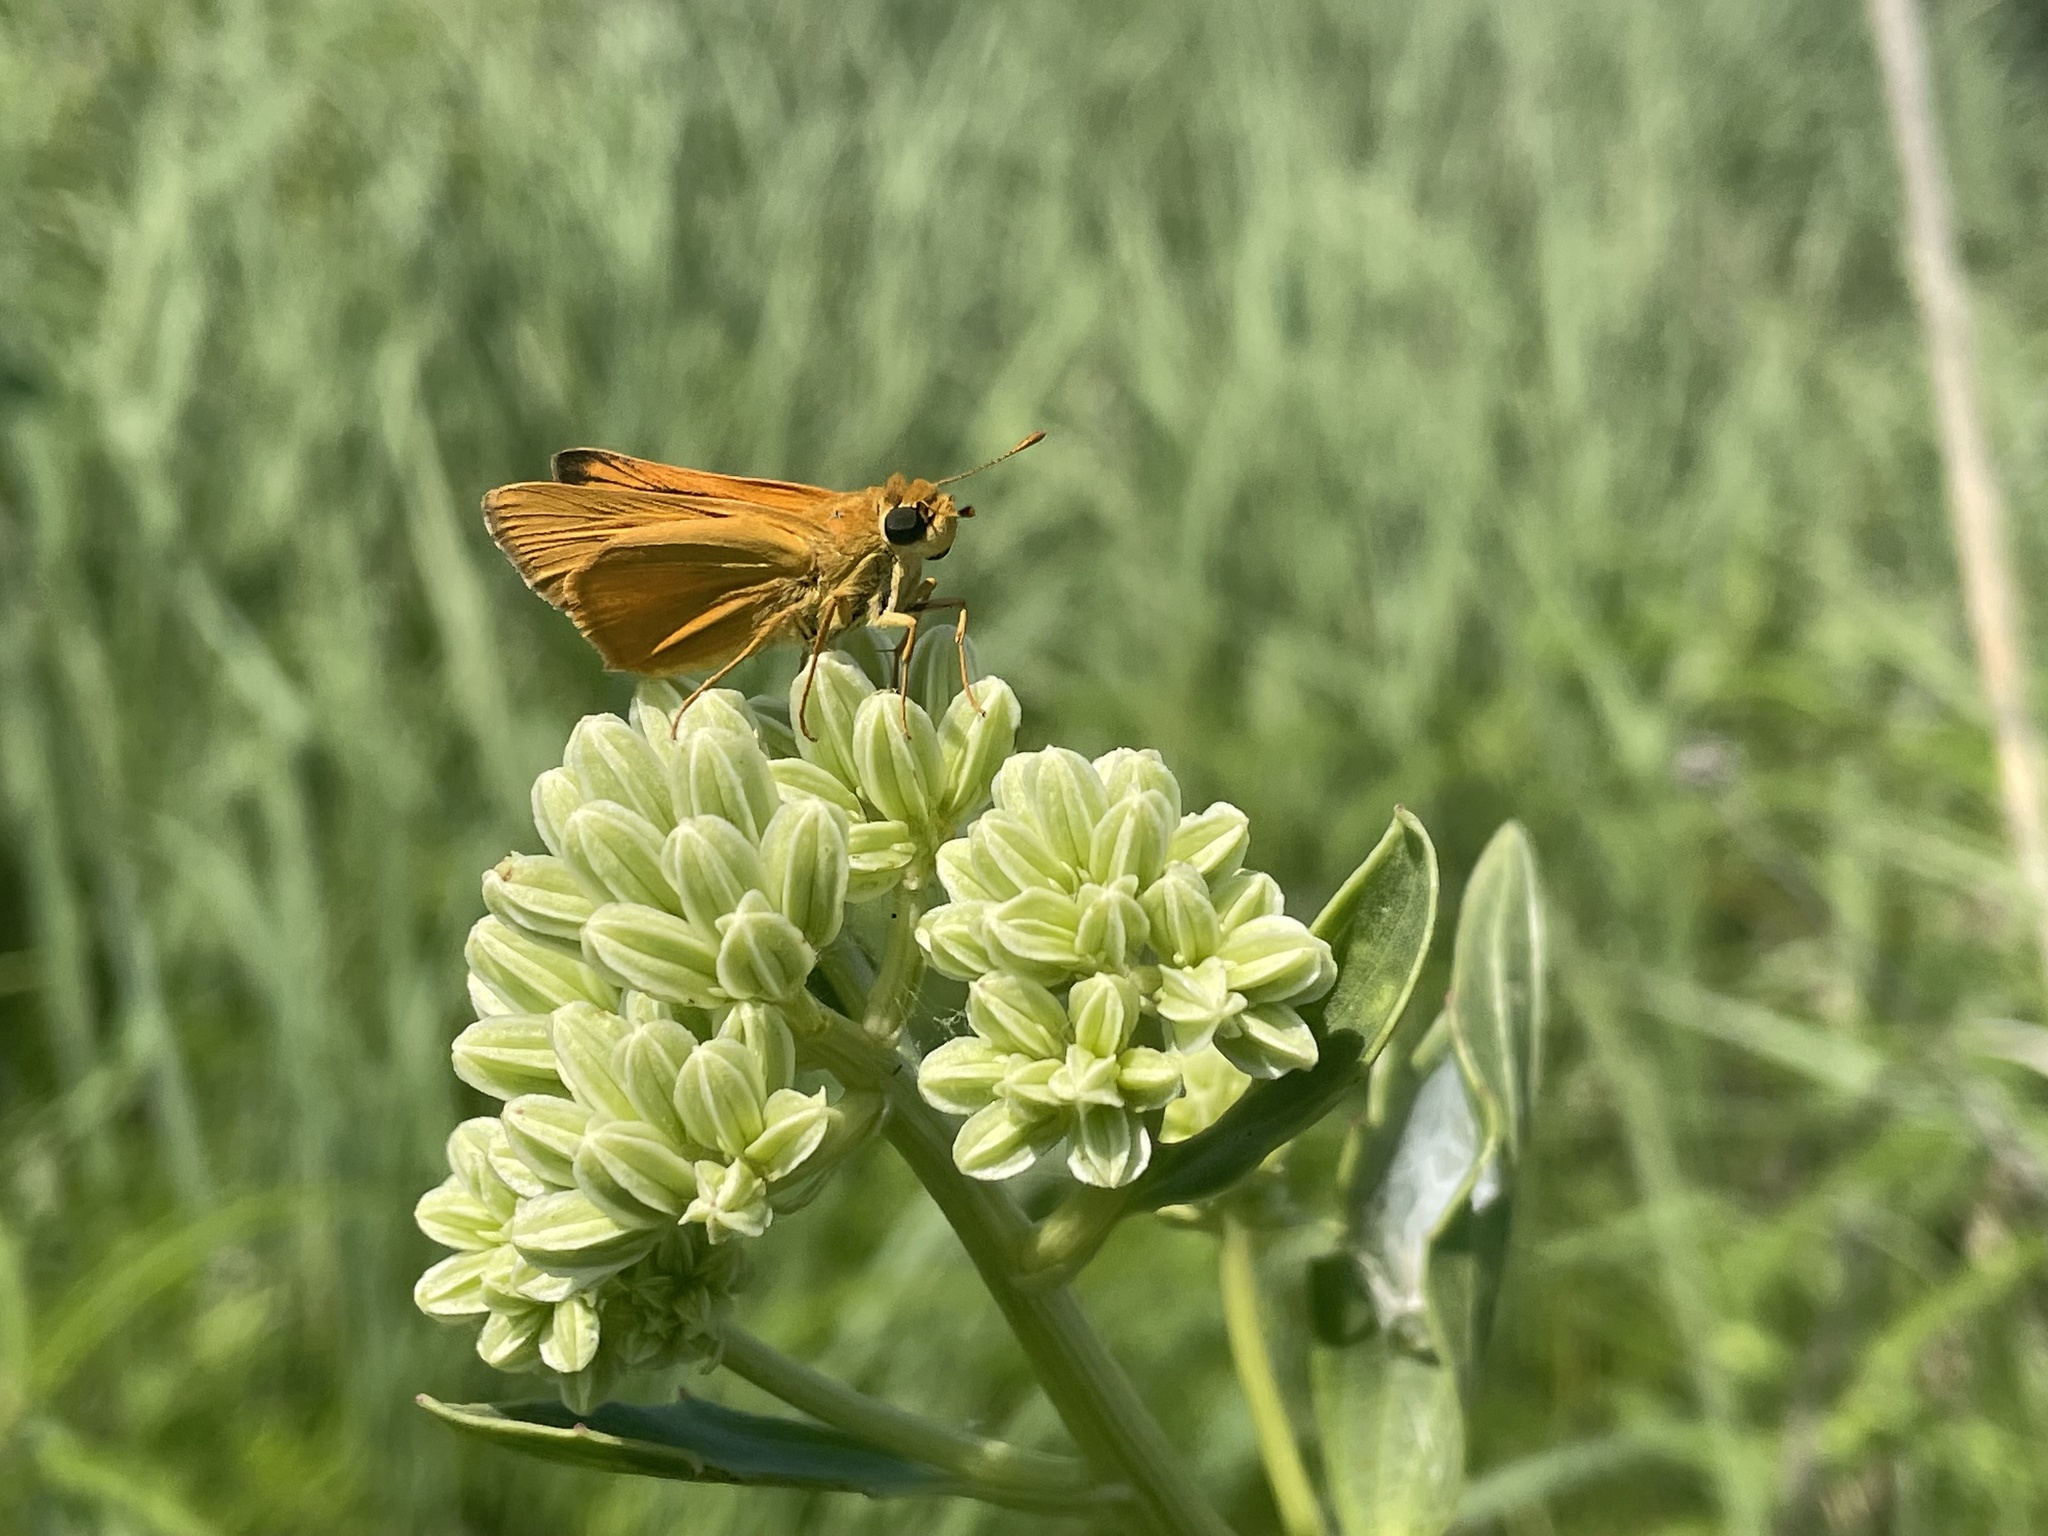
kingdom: Animalia
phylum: Arthropoda
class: Insecta
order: Lepidoptera
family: Hesperiidae
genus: Atrytone
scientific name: Atrytone delaware
